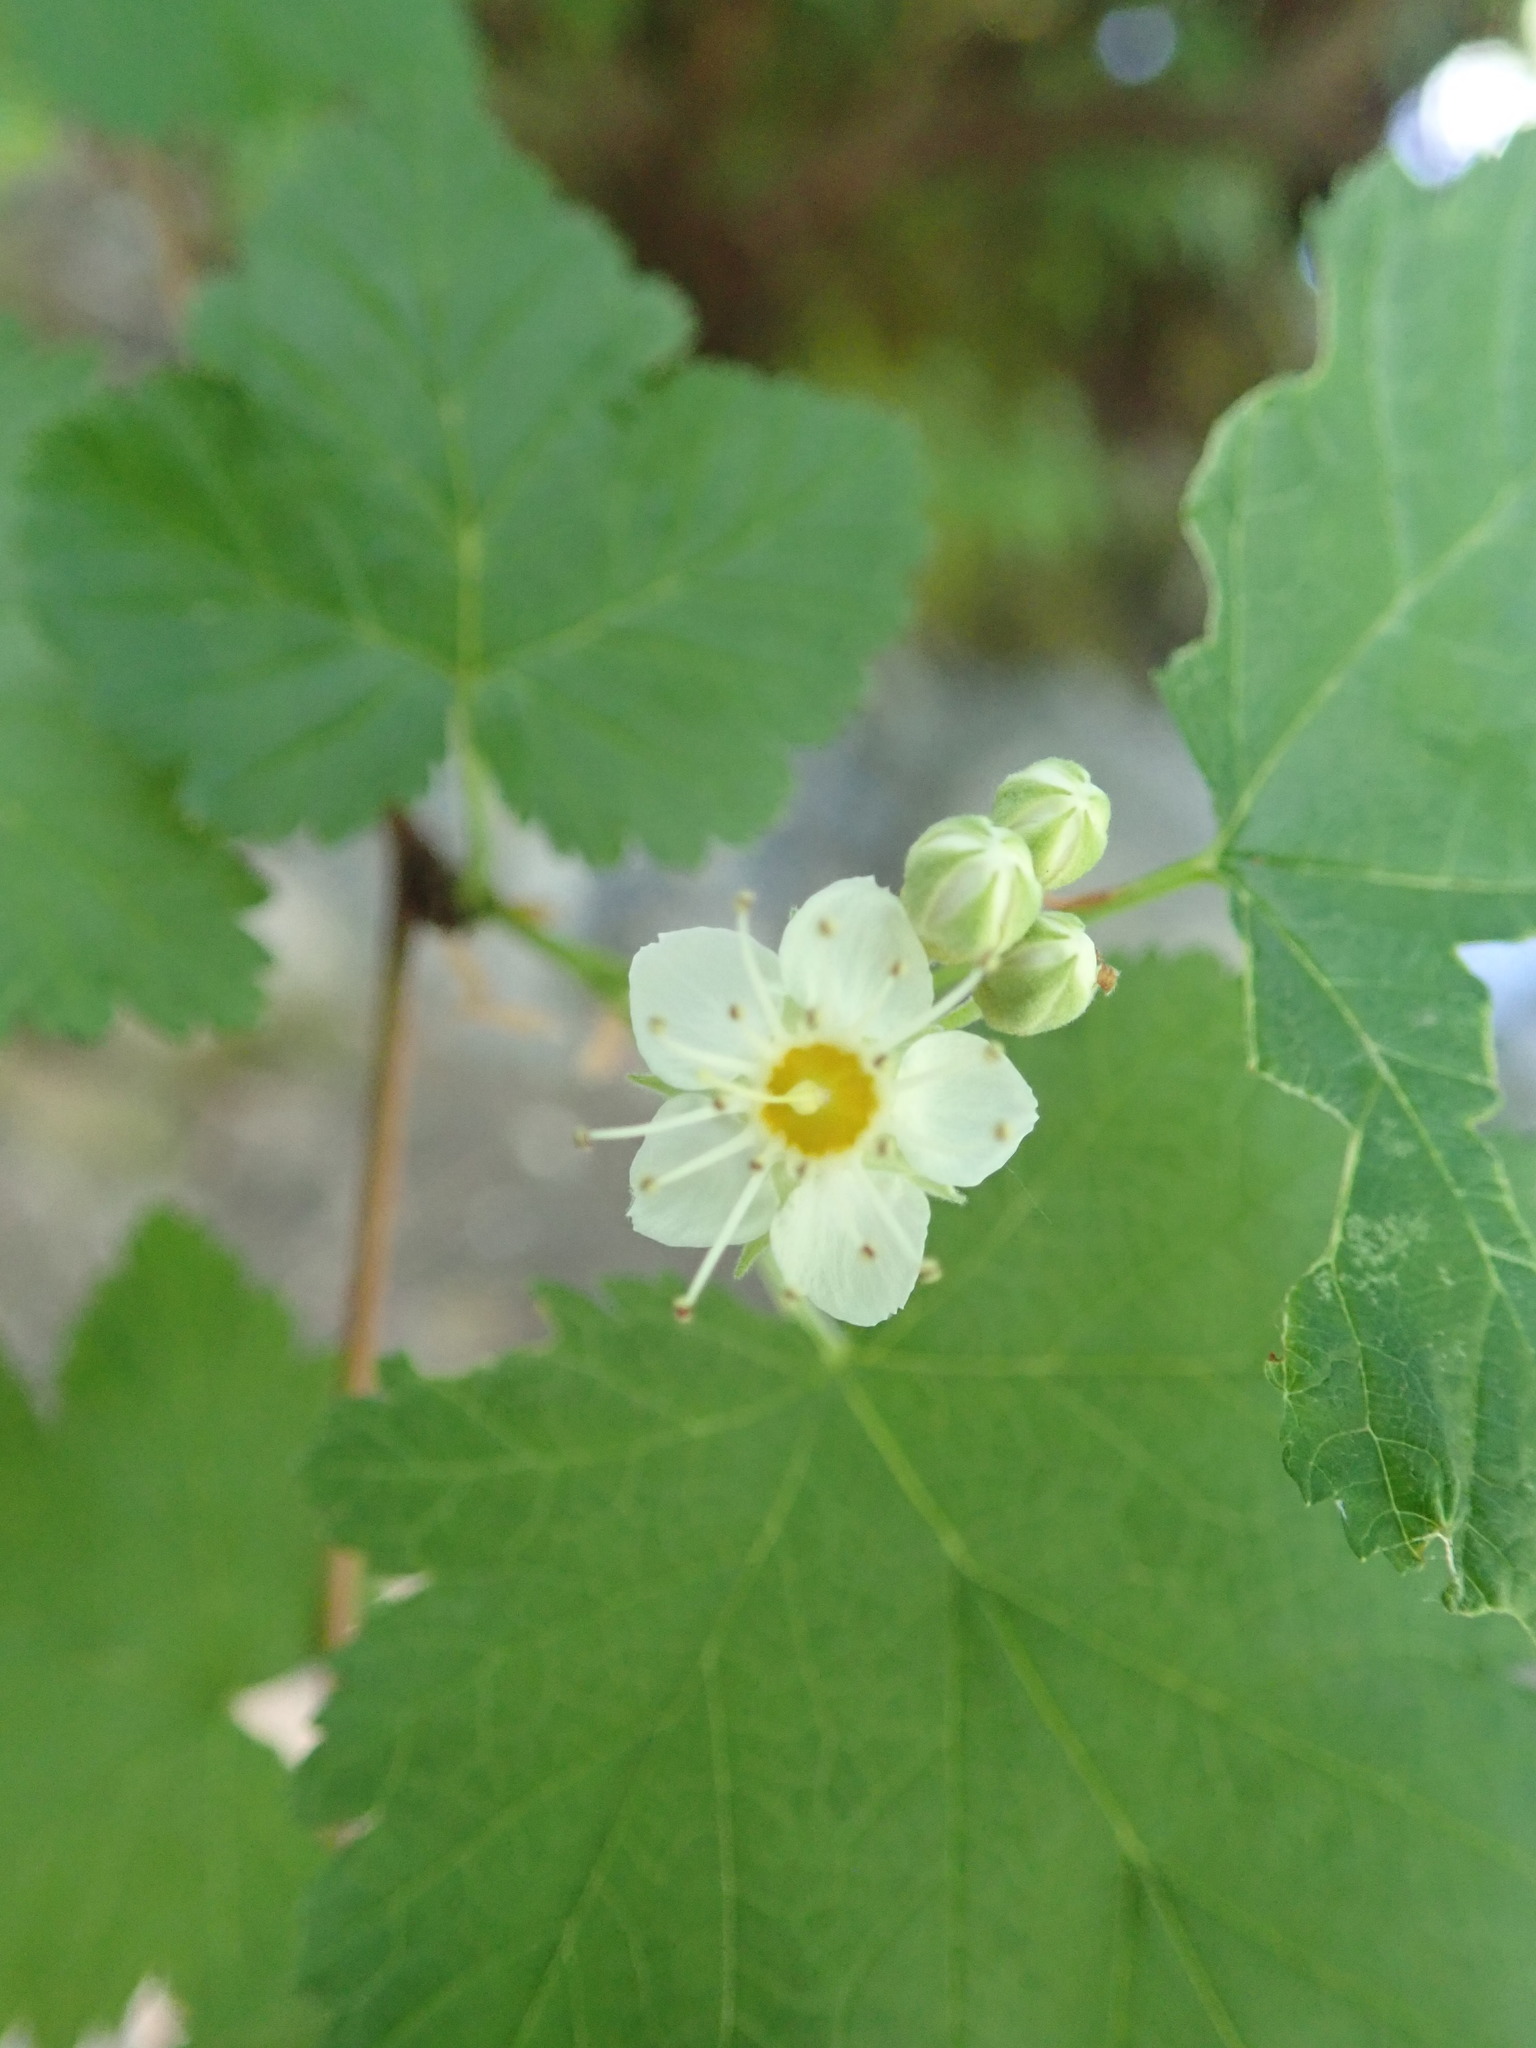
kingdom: Plantae
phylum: Tracheophyta
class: Magnoliopsida
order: Rosales
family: Rosaceae
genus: Physocarpus
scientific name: Physocarpus capitatus
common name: Pacific ninebark
